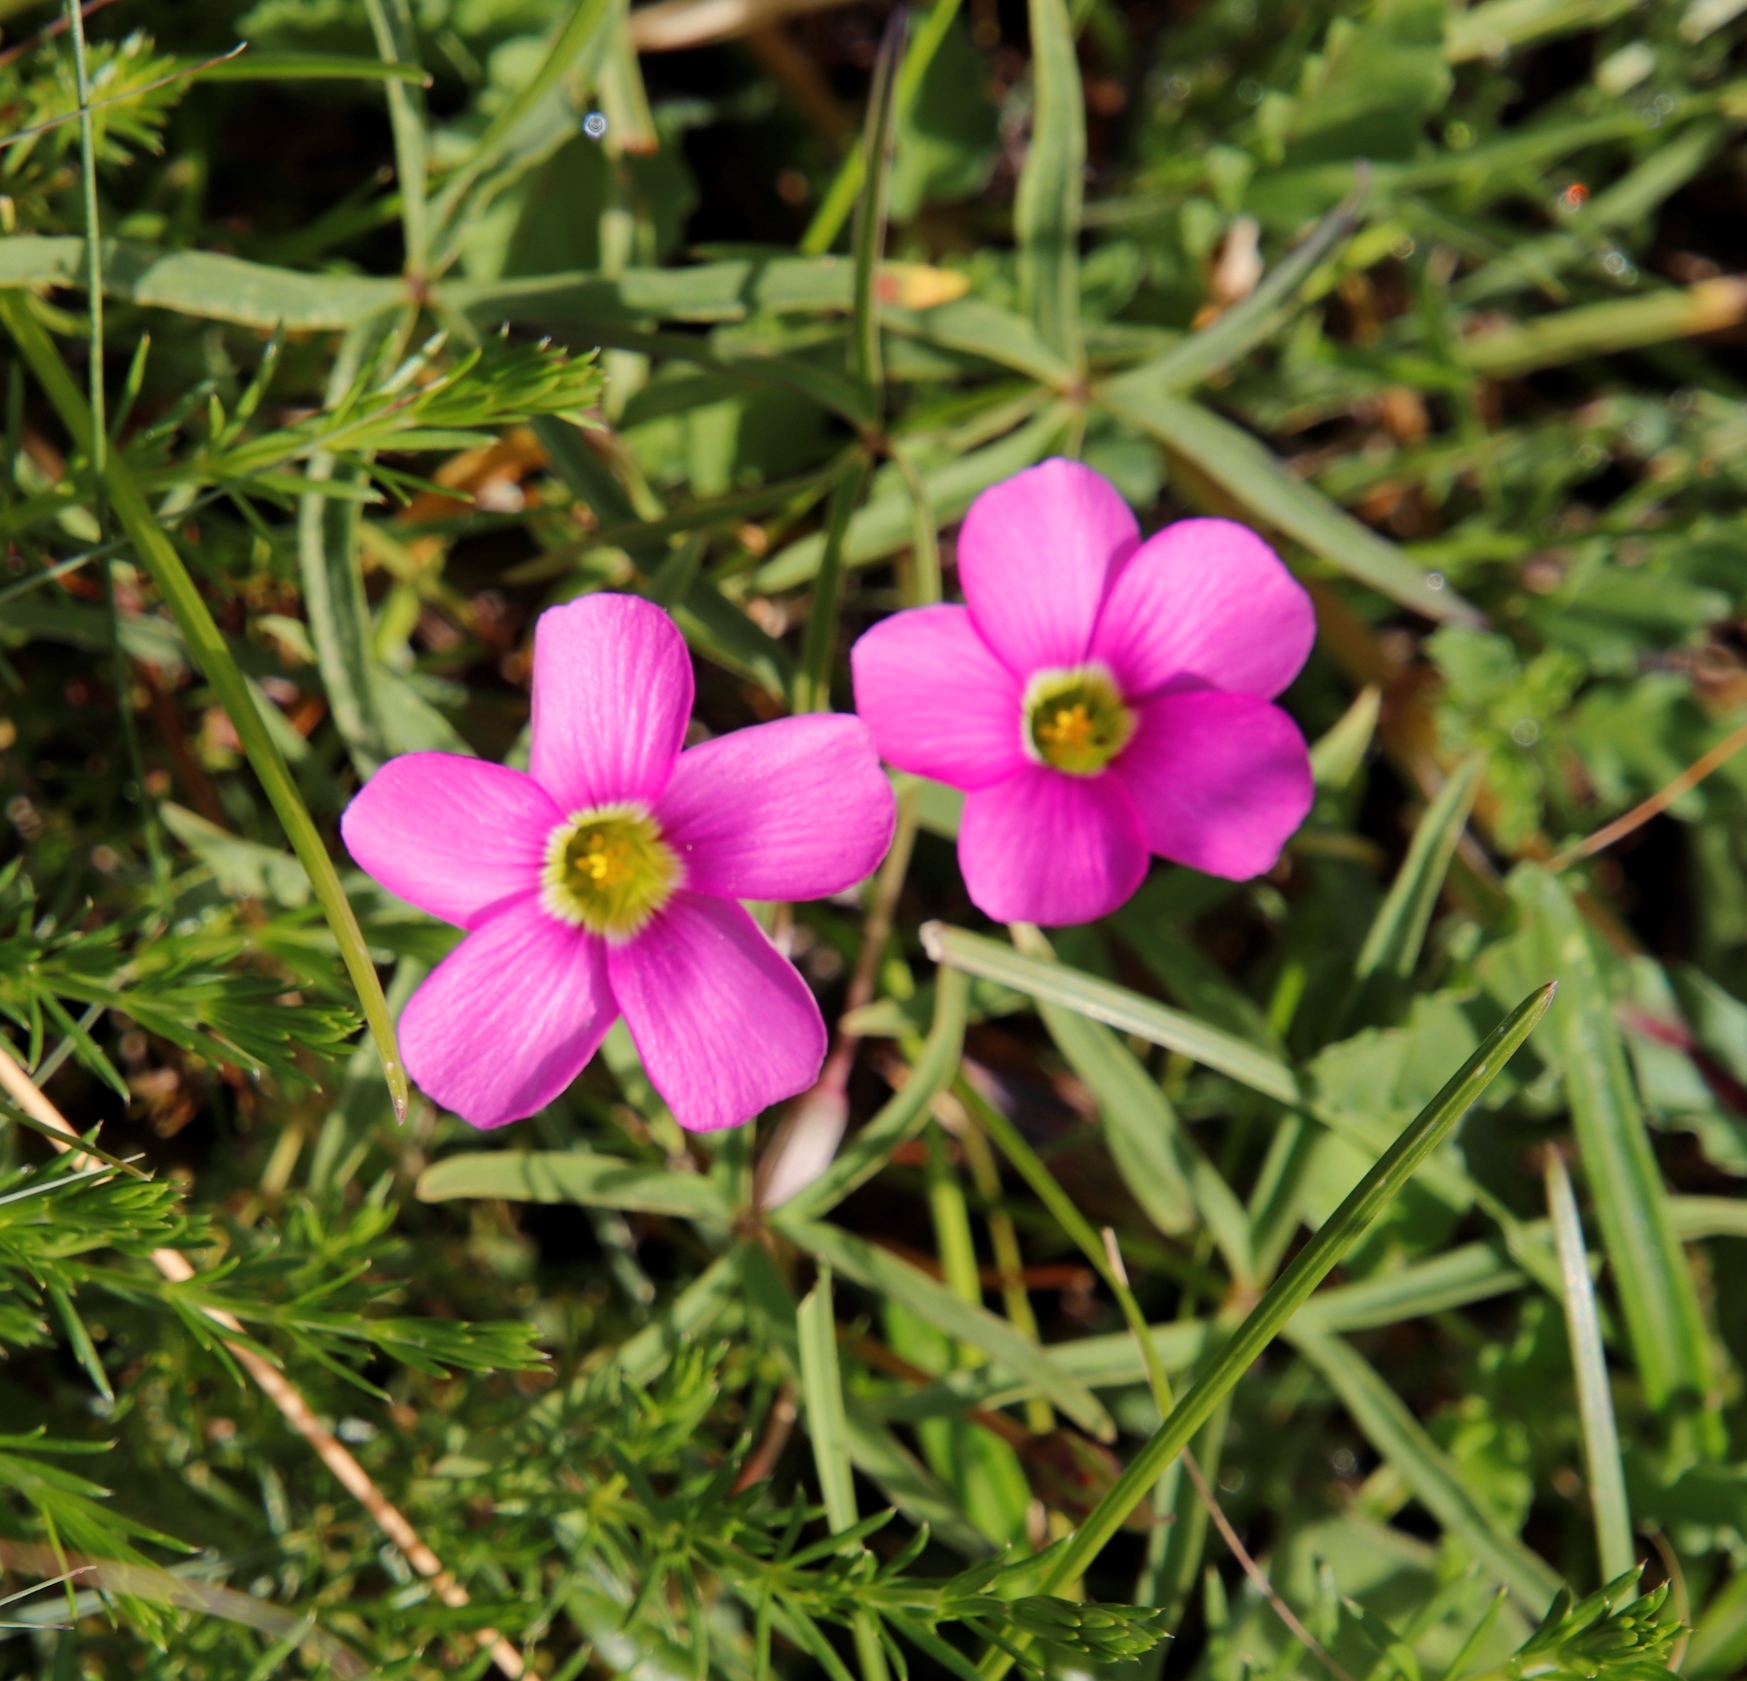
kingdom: Plantae
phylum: Tracheophyta
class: Magnoliopsida
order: Oxalidales
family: Oxalidaceae
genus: Oxalis
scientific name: Oxalis smithiana
